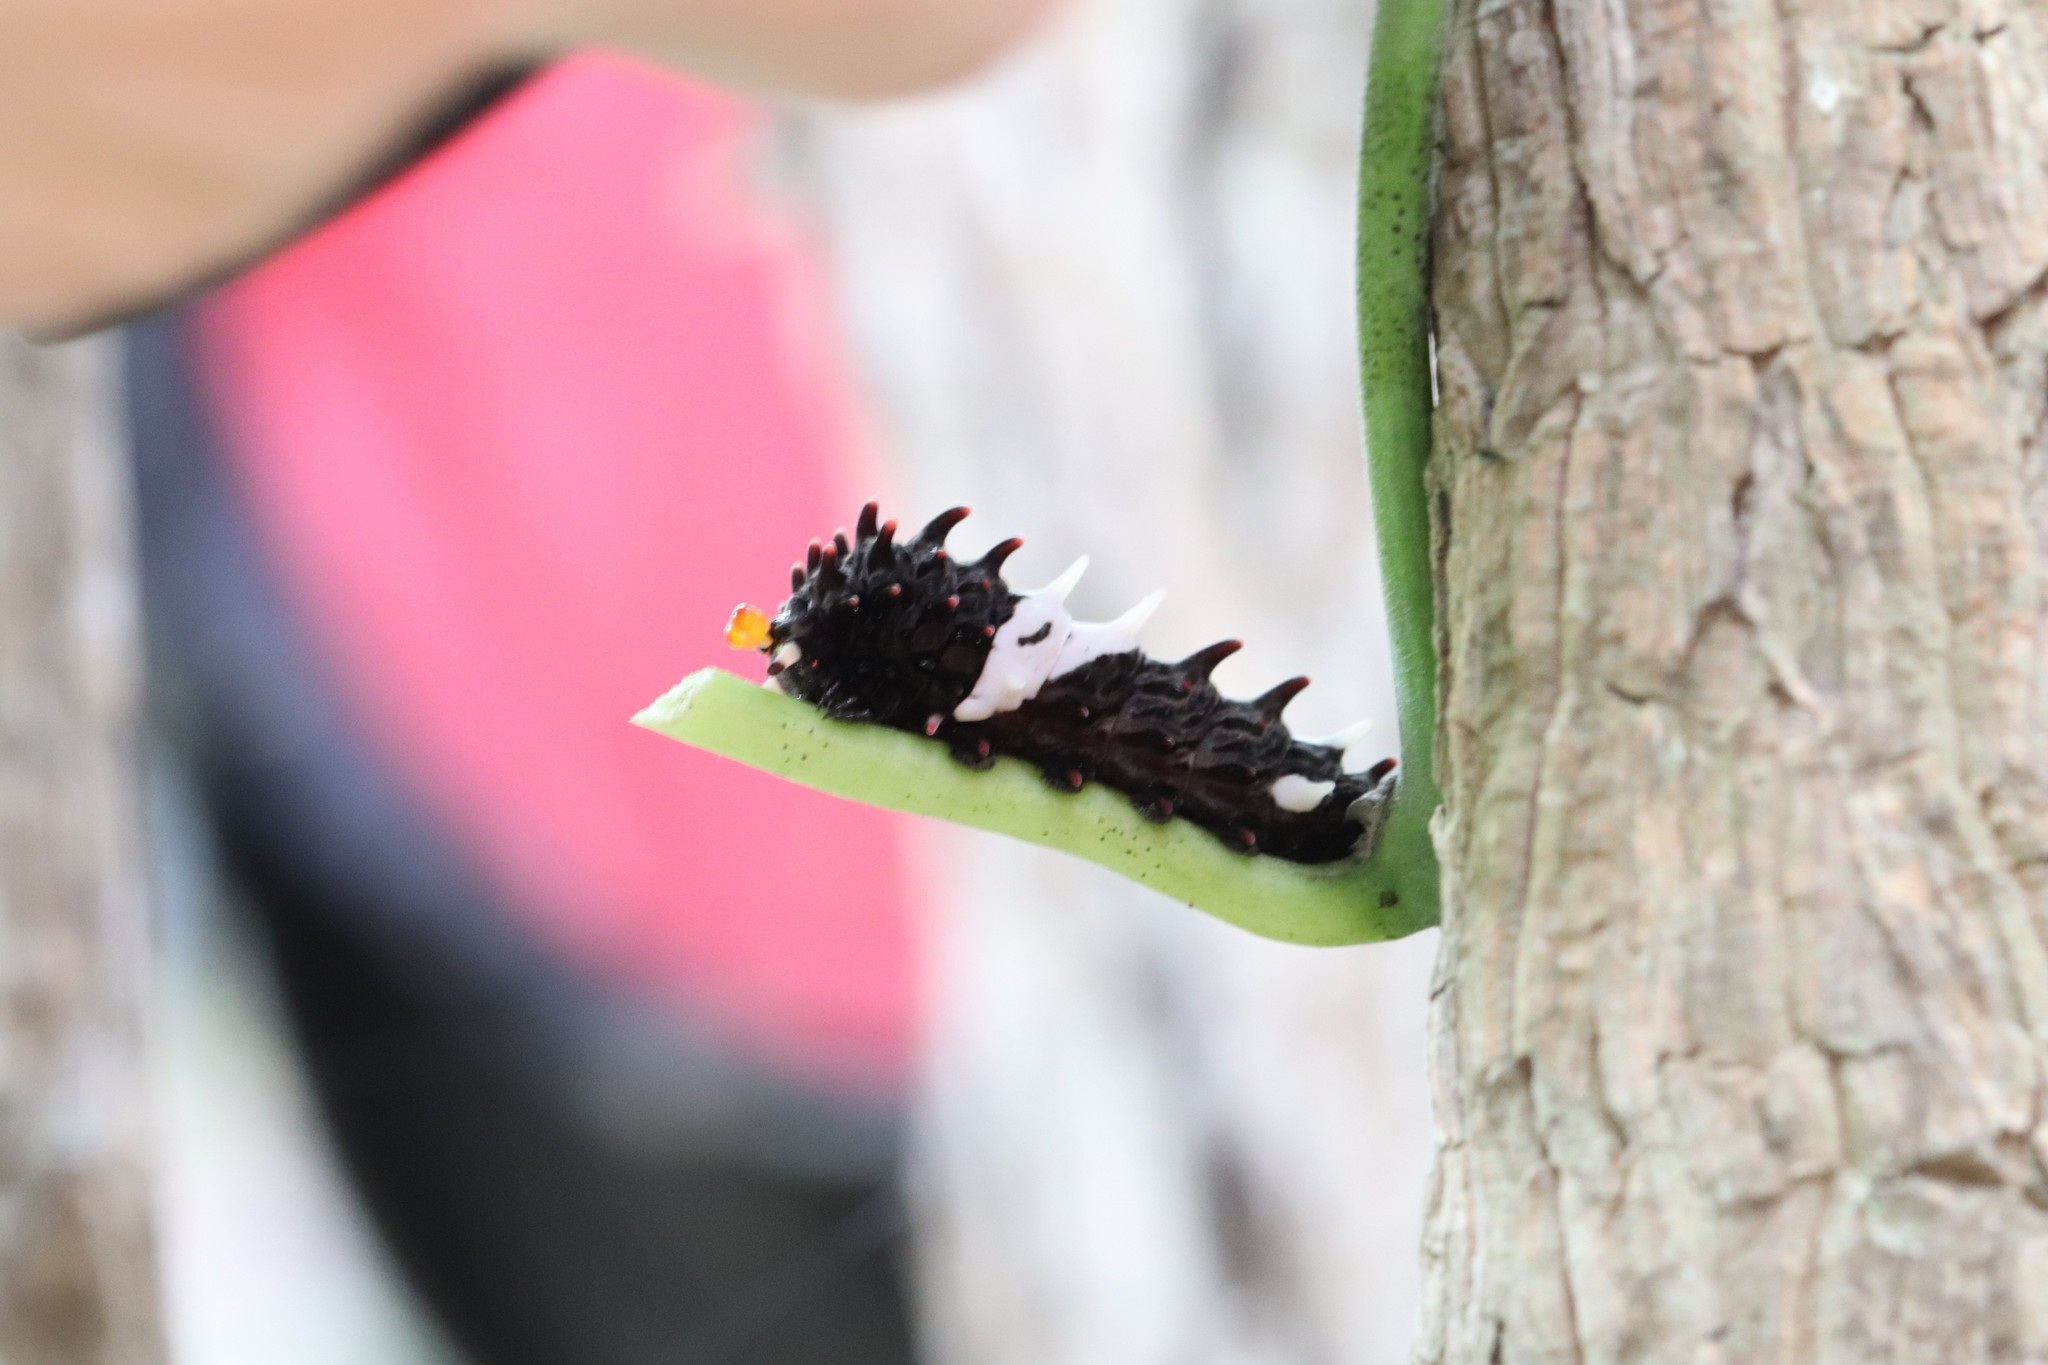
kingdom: Animalia
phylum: Arthropoda
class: Insecta
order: Lepidoptera
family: Papilionidae
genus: Byasa
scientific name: Byasa alcinous
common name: Chinese windmill
